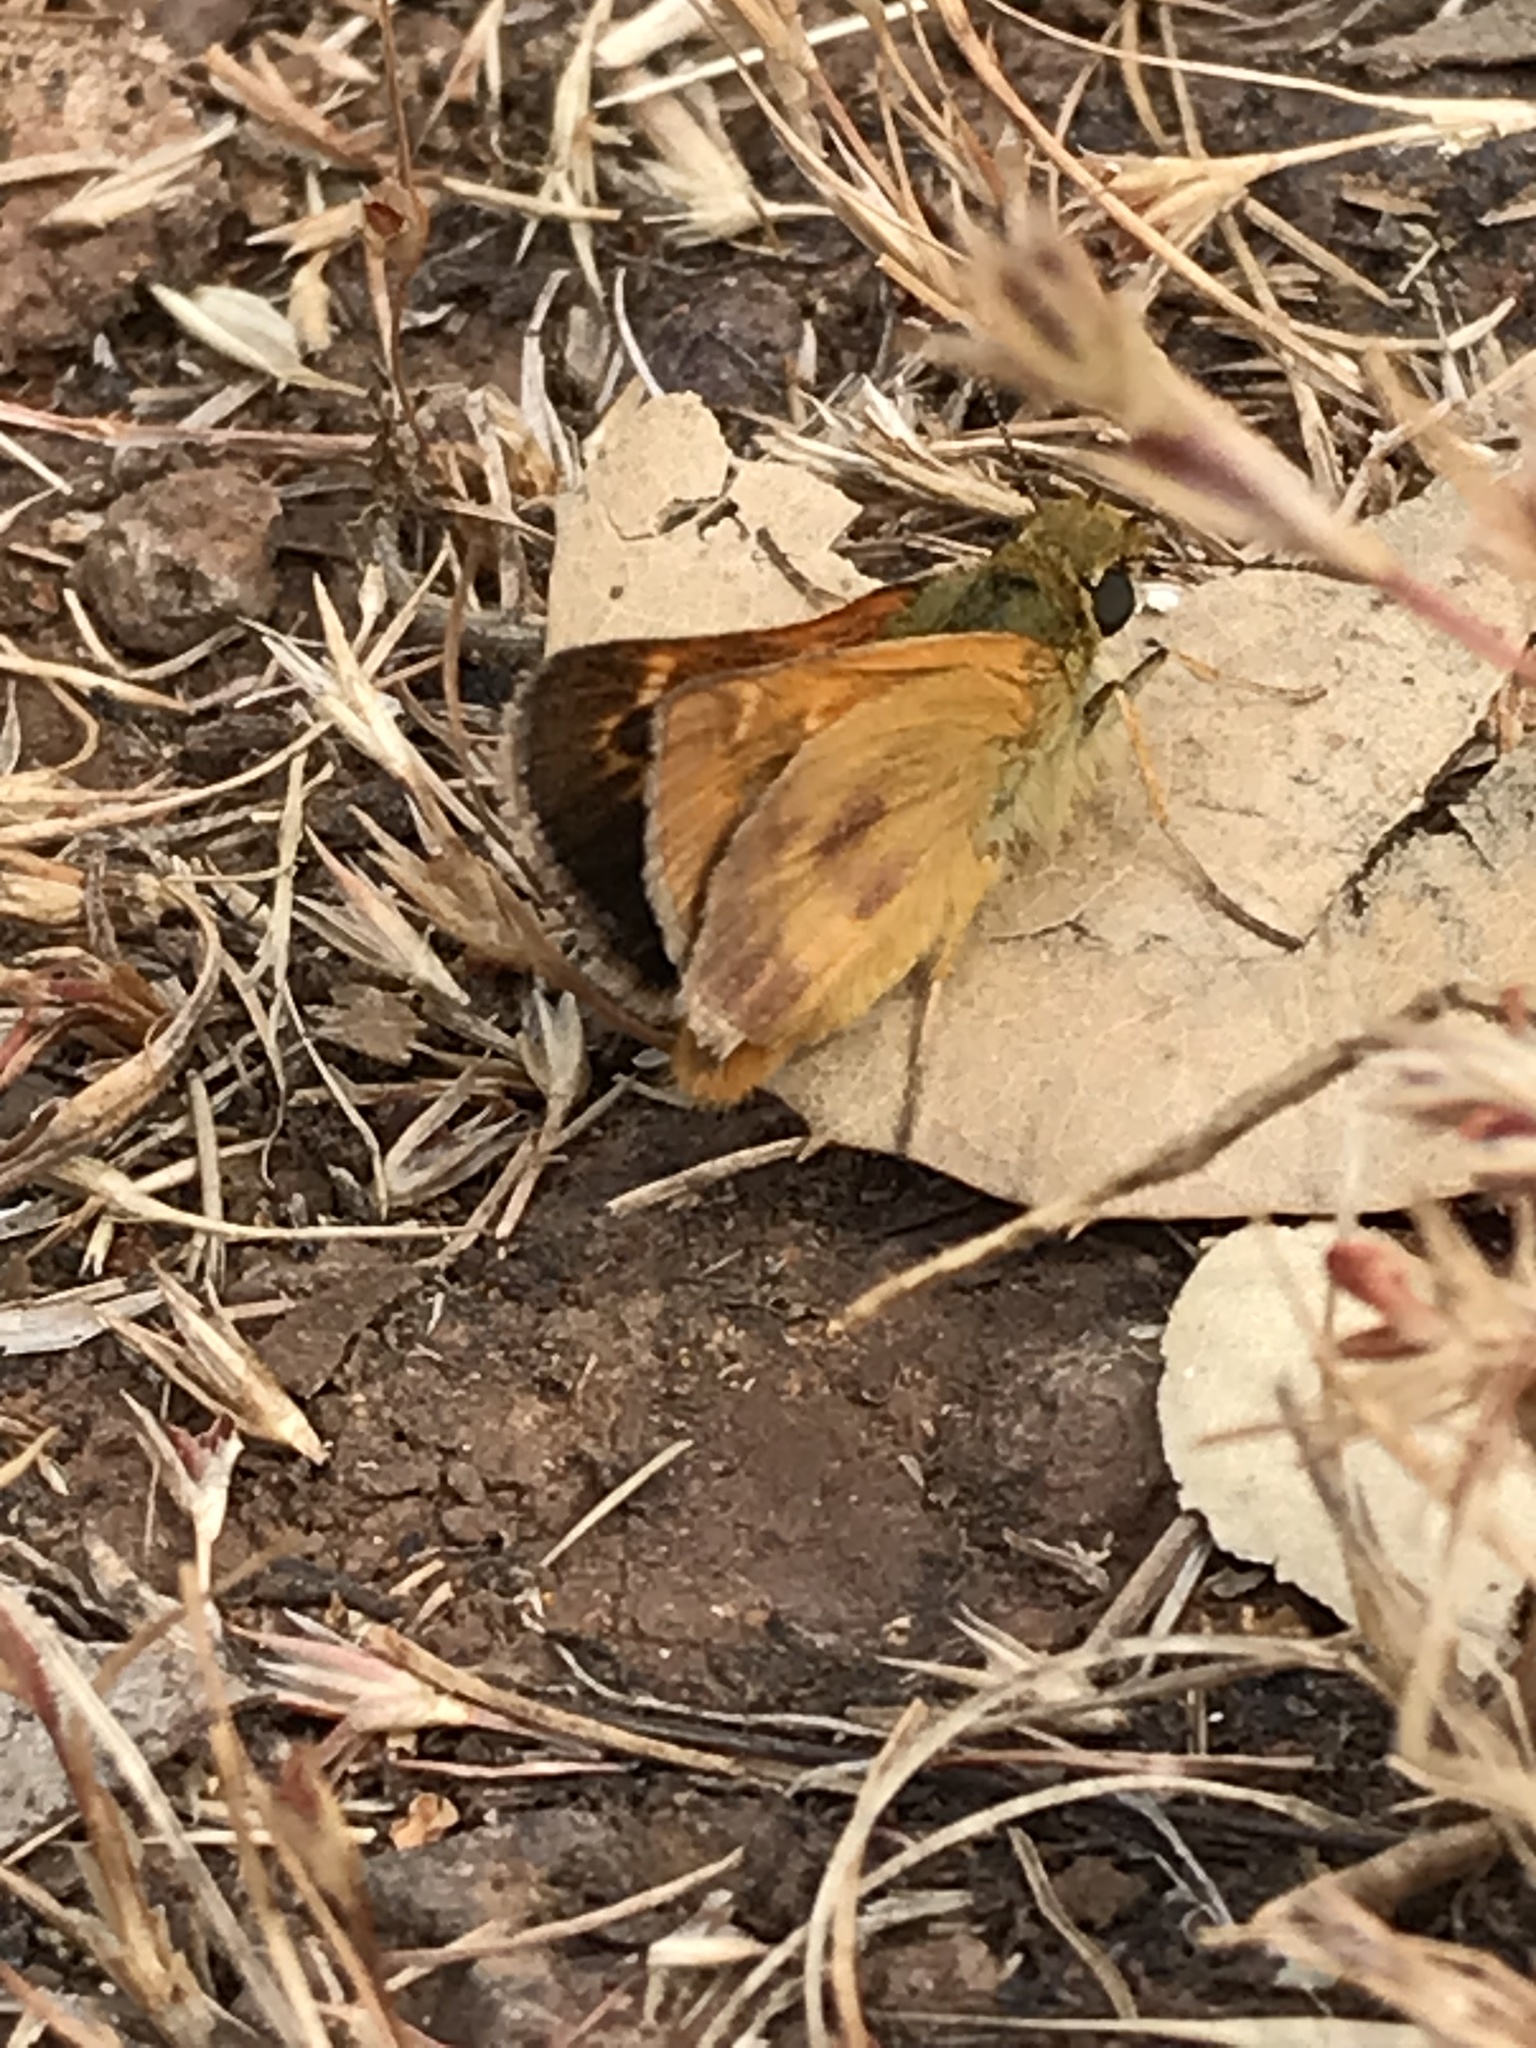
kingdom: Animalia
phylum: Arthropoda
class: Insecta
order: Lepidoptera
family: Hesperiidae
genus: Ochlodes
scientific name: Ochlodes agricola
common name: Rural skipper
